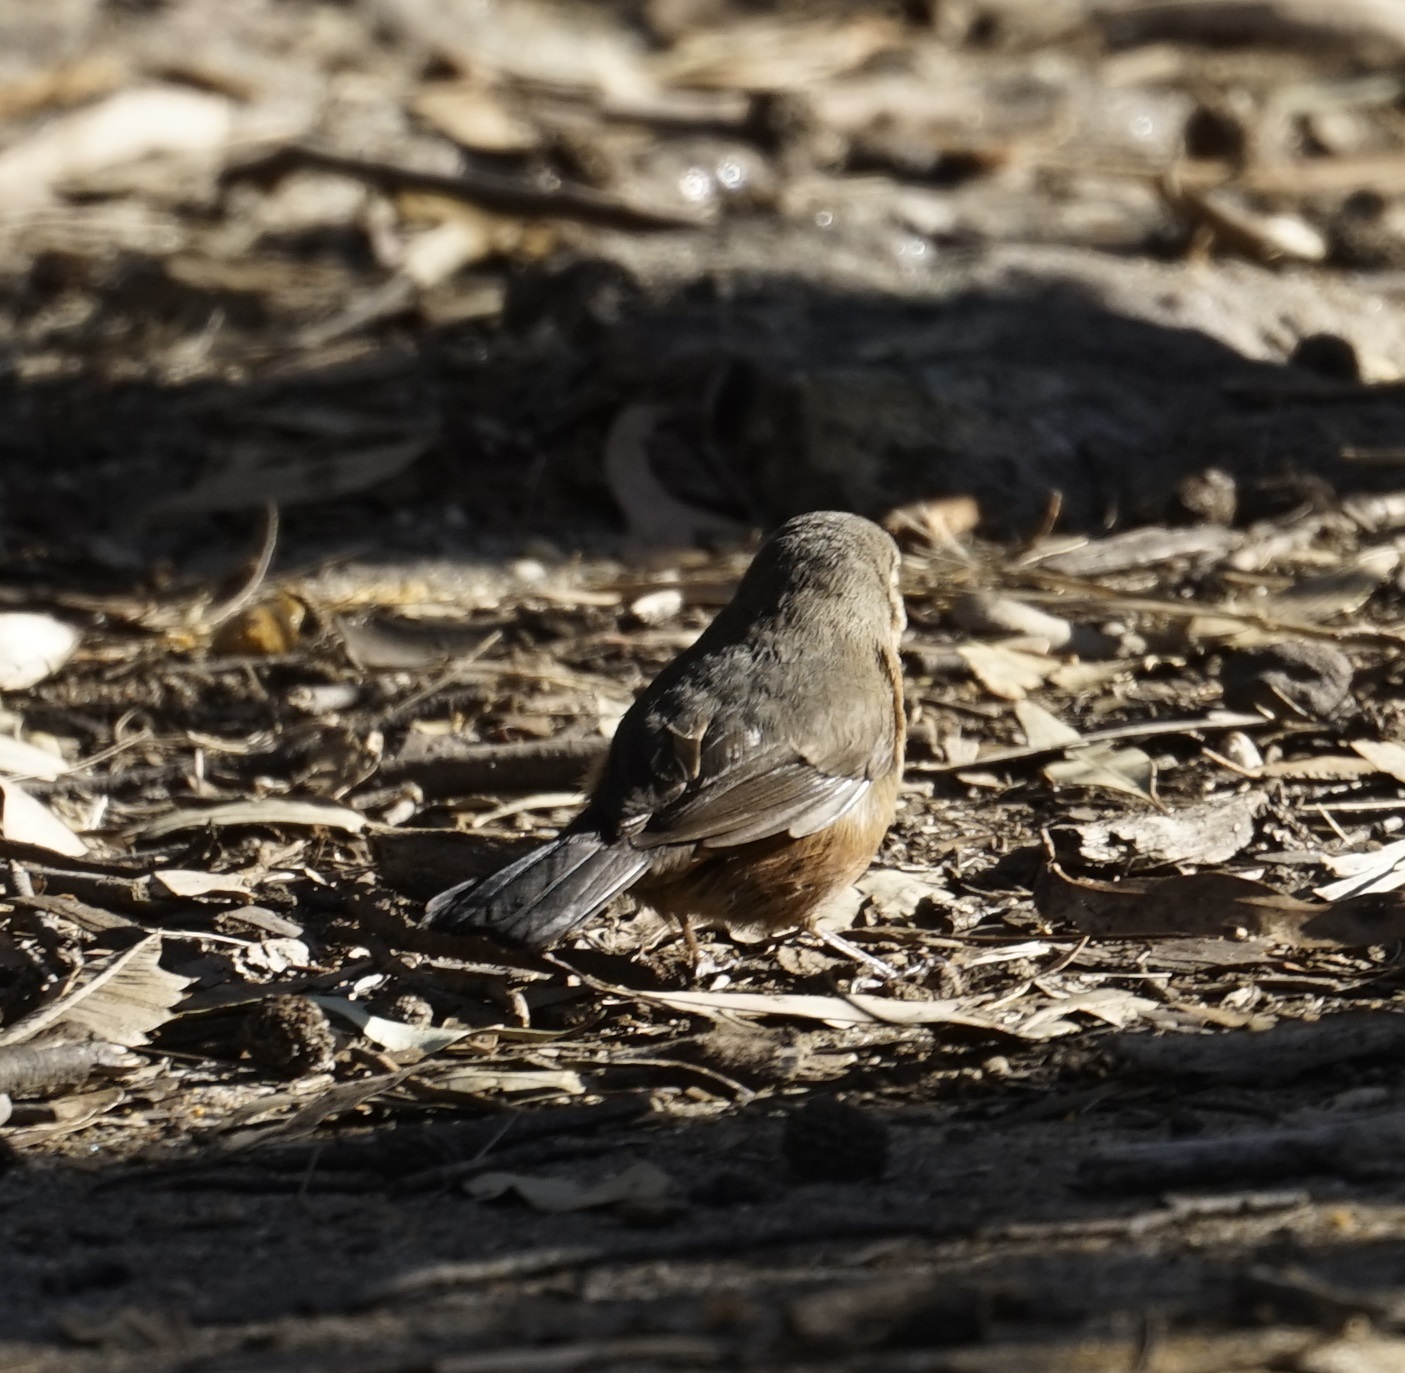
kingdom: Animalia
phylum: Chordata
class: Aves
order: Passeriformes
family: Acanthizidae
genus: Origma
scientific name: Origma solitaria
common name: Rockwarbler
